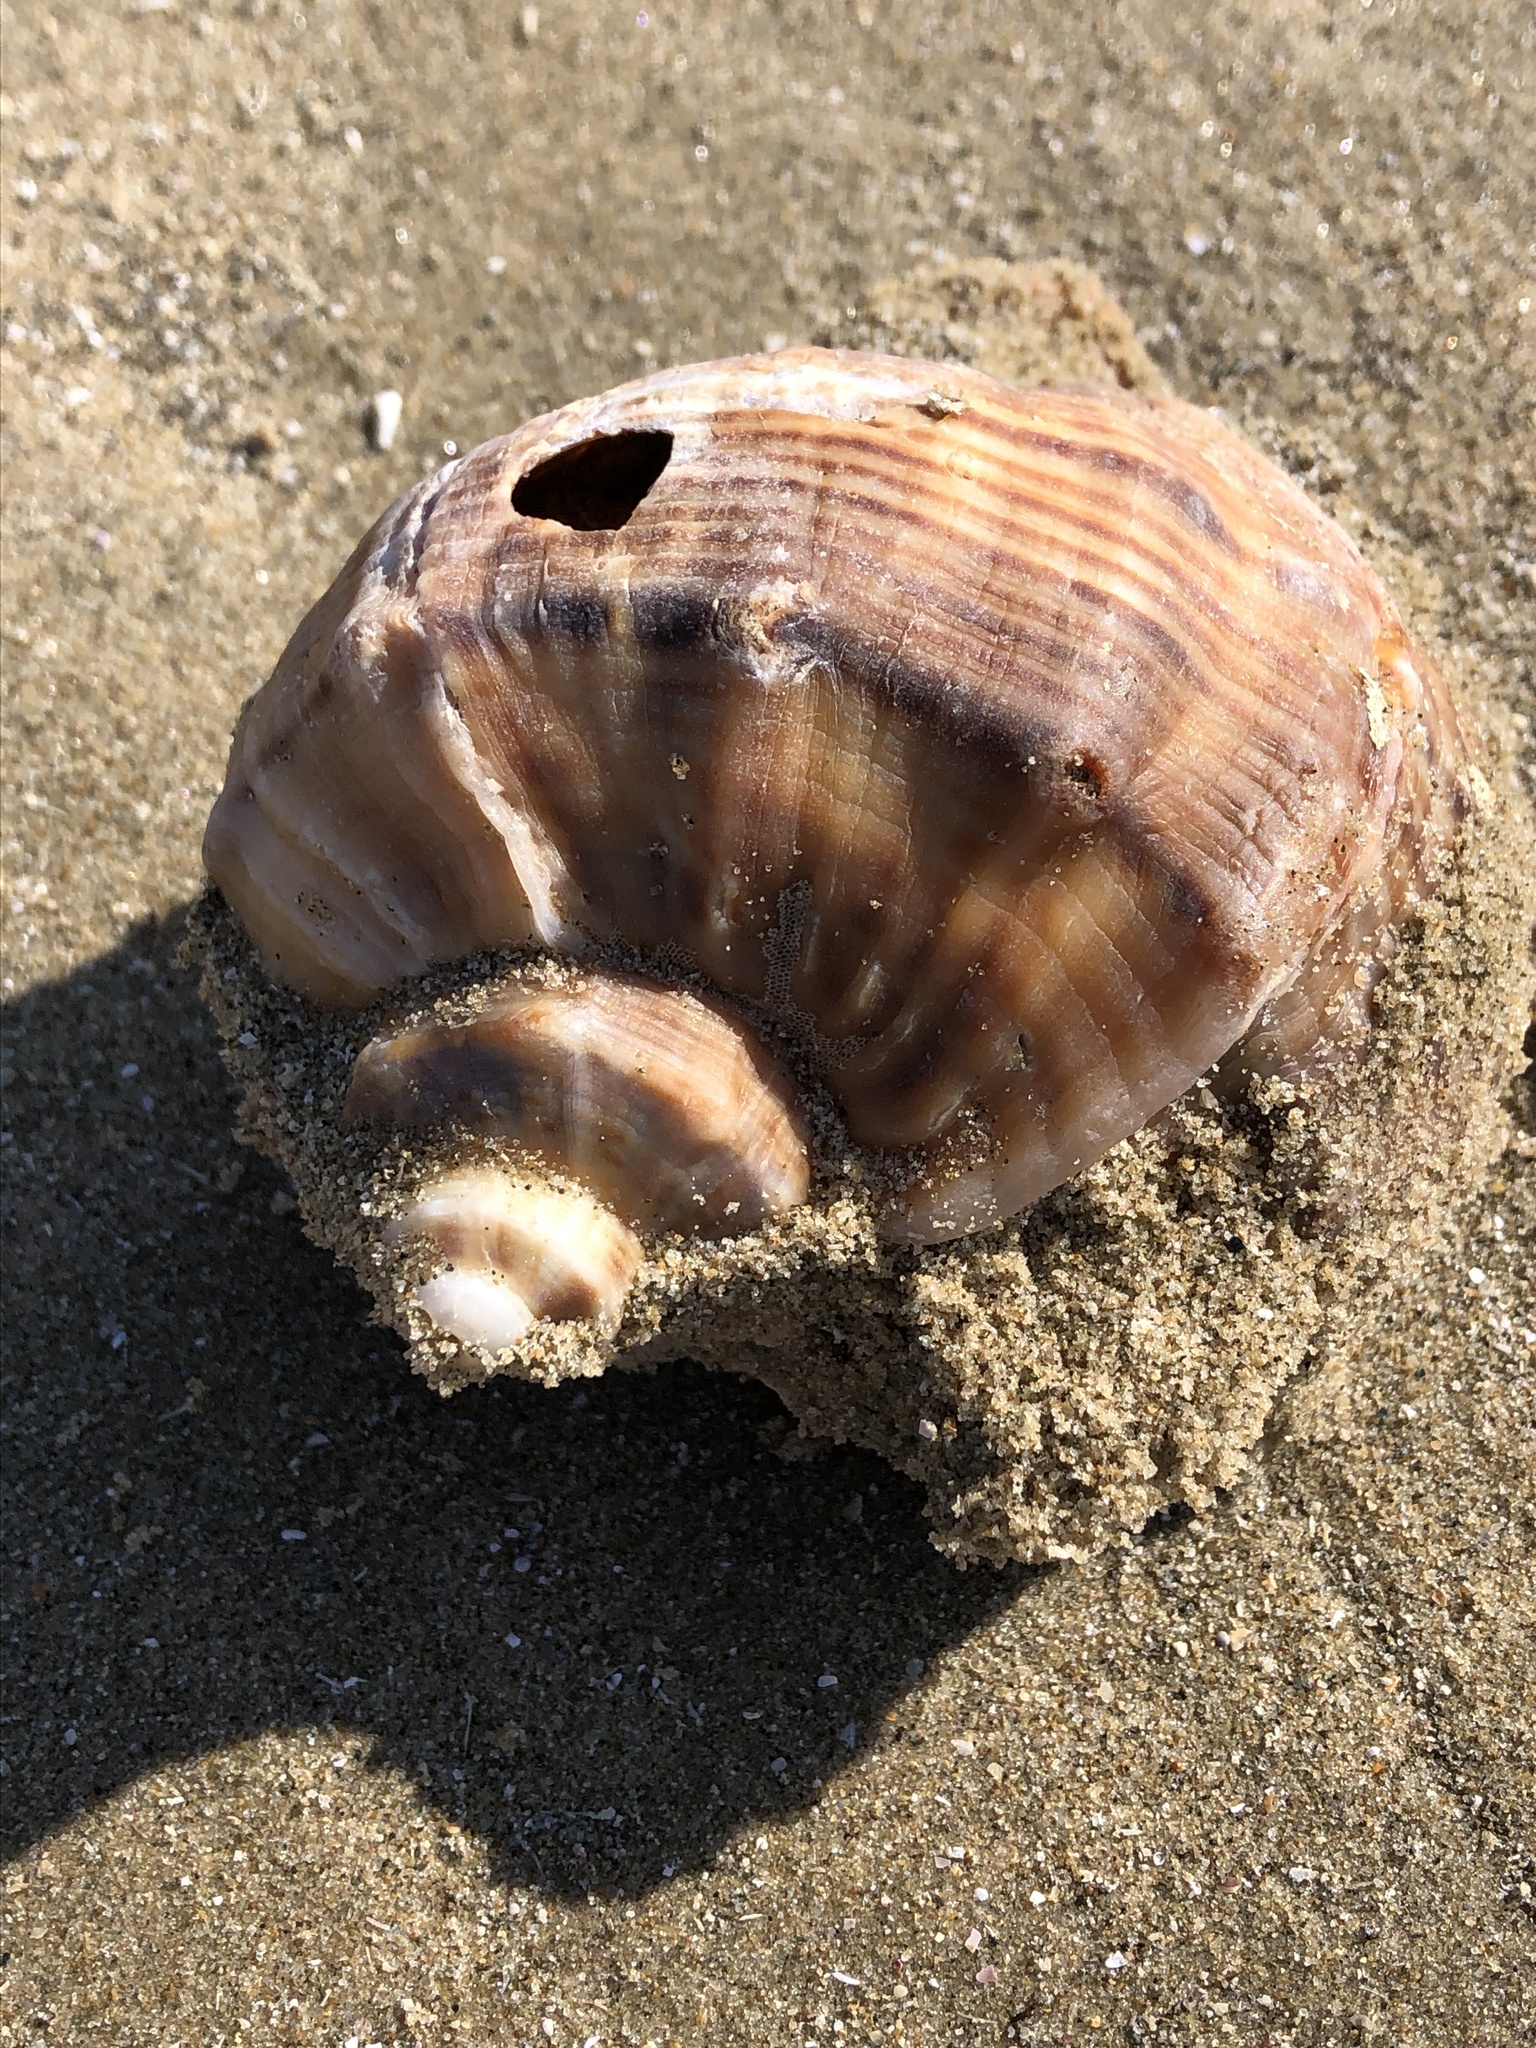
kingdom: Animalia
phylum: Mollusca
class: Gastropoda
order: Neogastropoda
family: Muricidae
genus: Rapana
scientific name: Rapana venosa
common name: Veined rapa whelk
